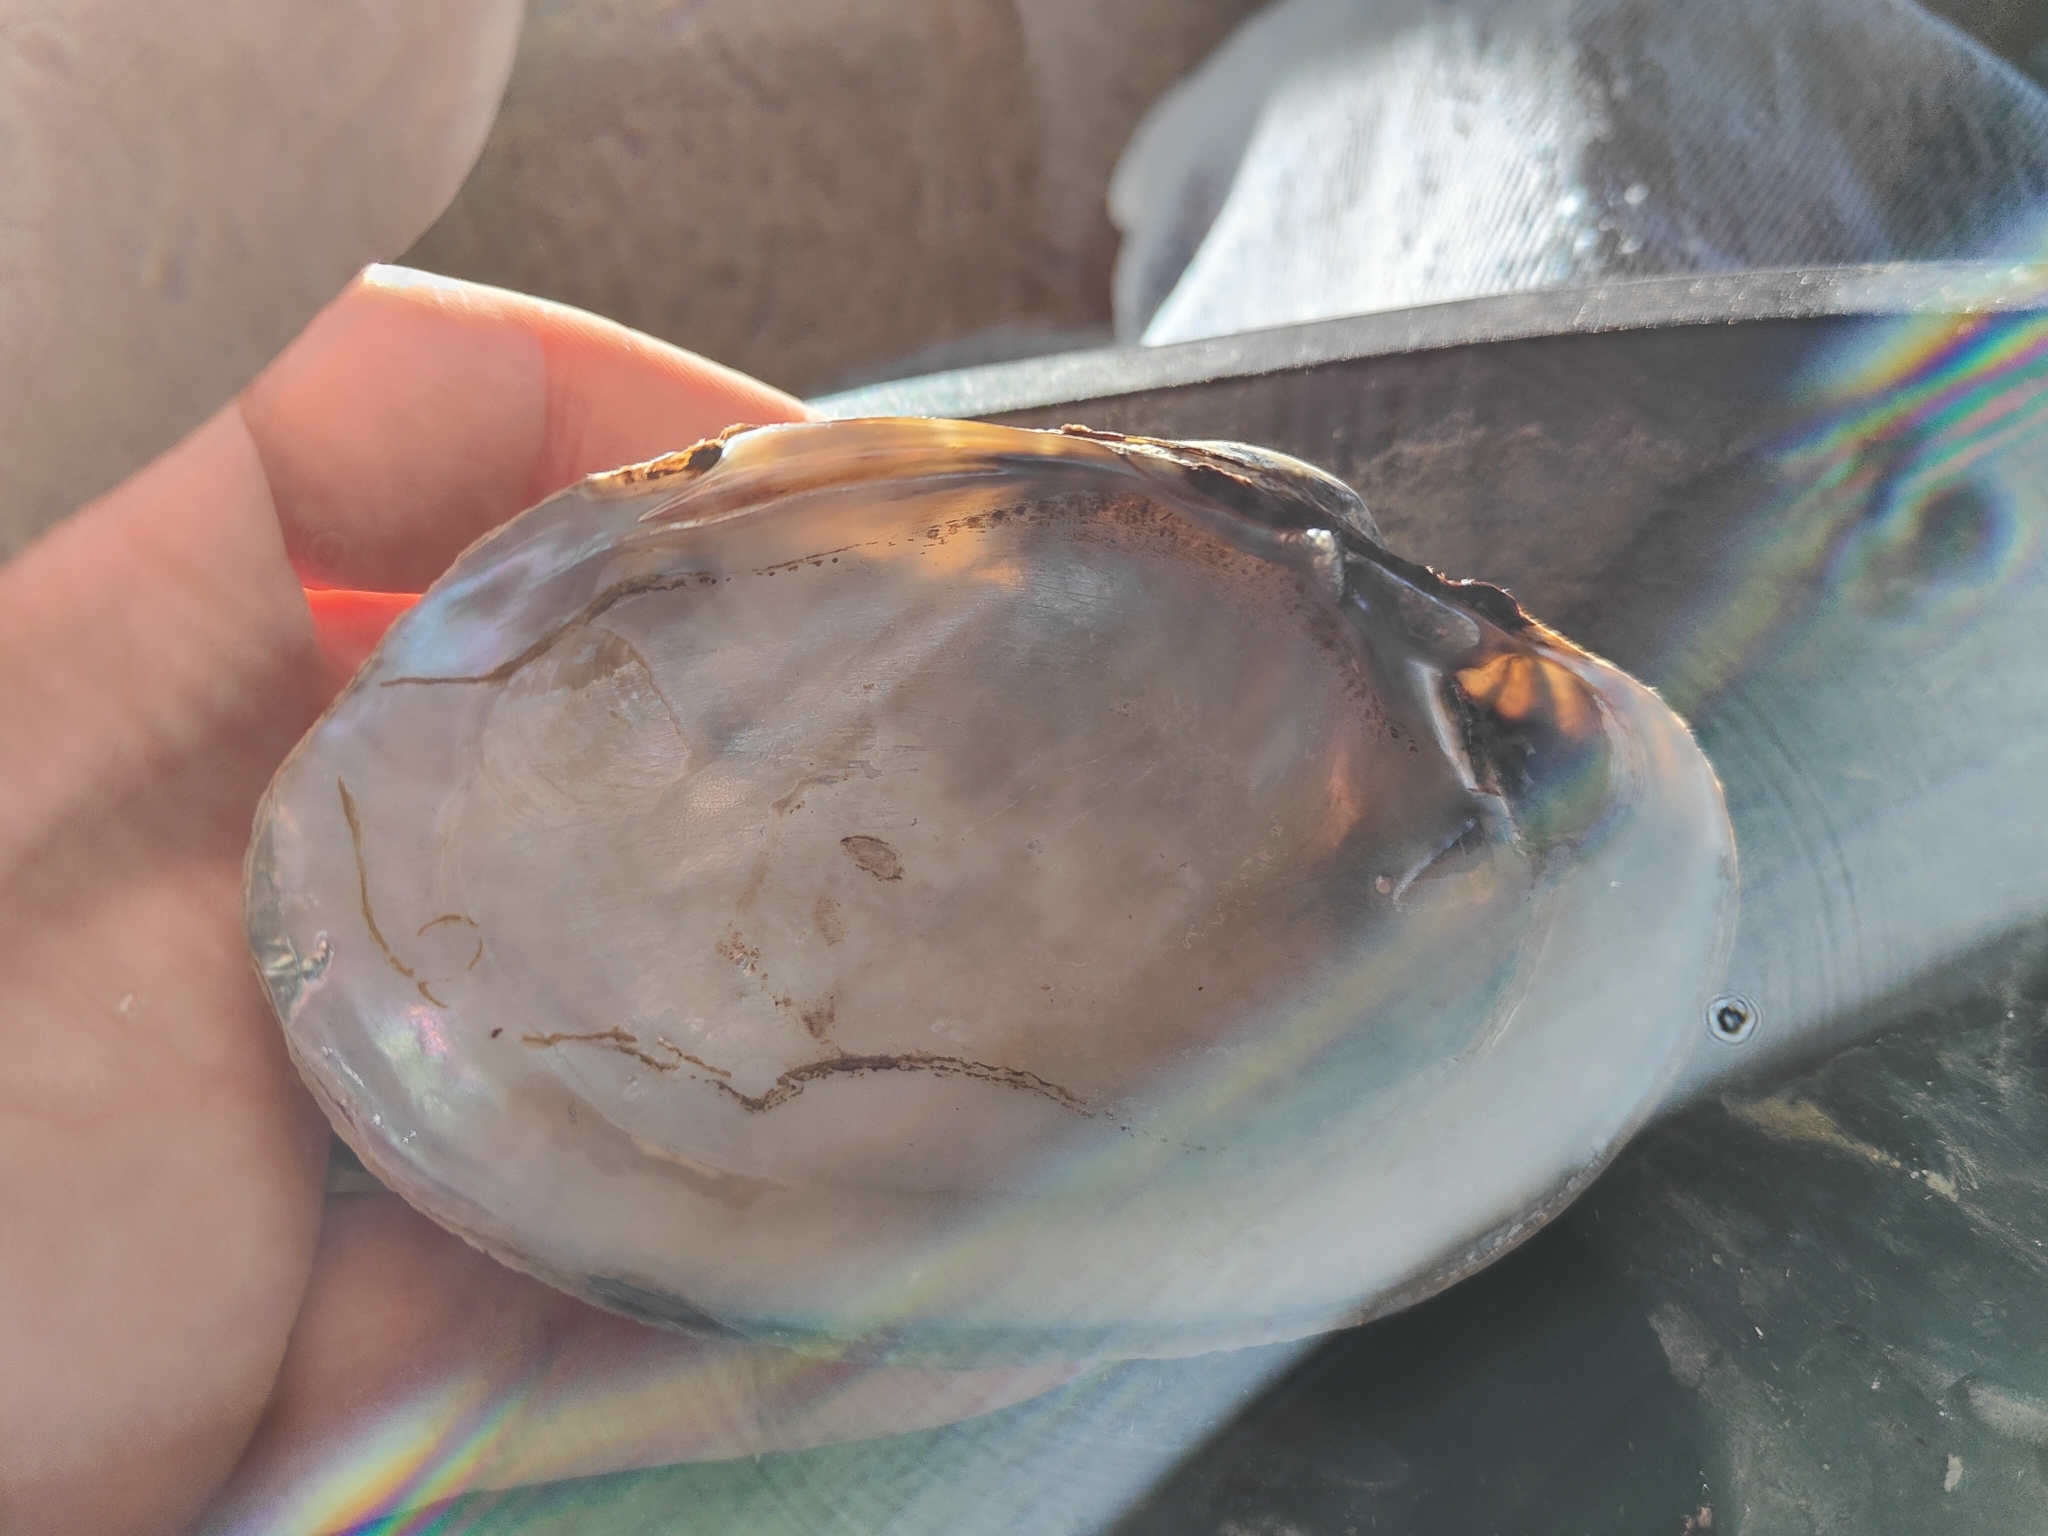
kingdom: Animalia
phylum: Mollusca
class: Bivalvia
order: Unionida
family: Unionidae
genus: Lampsilis
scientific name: Lampsilis cardium
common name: Plain pocketbook
